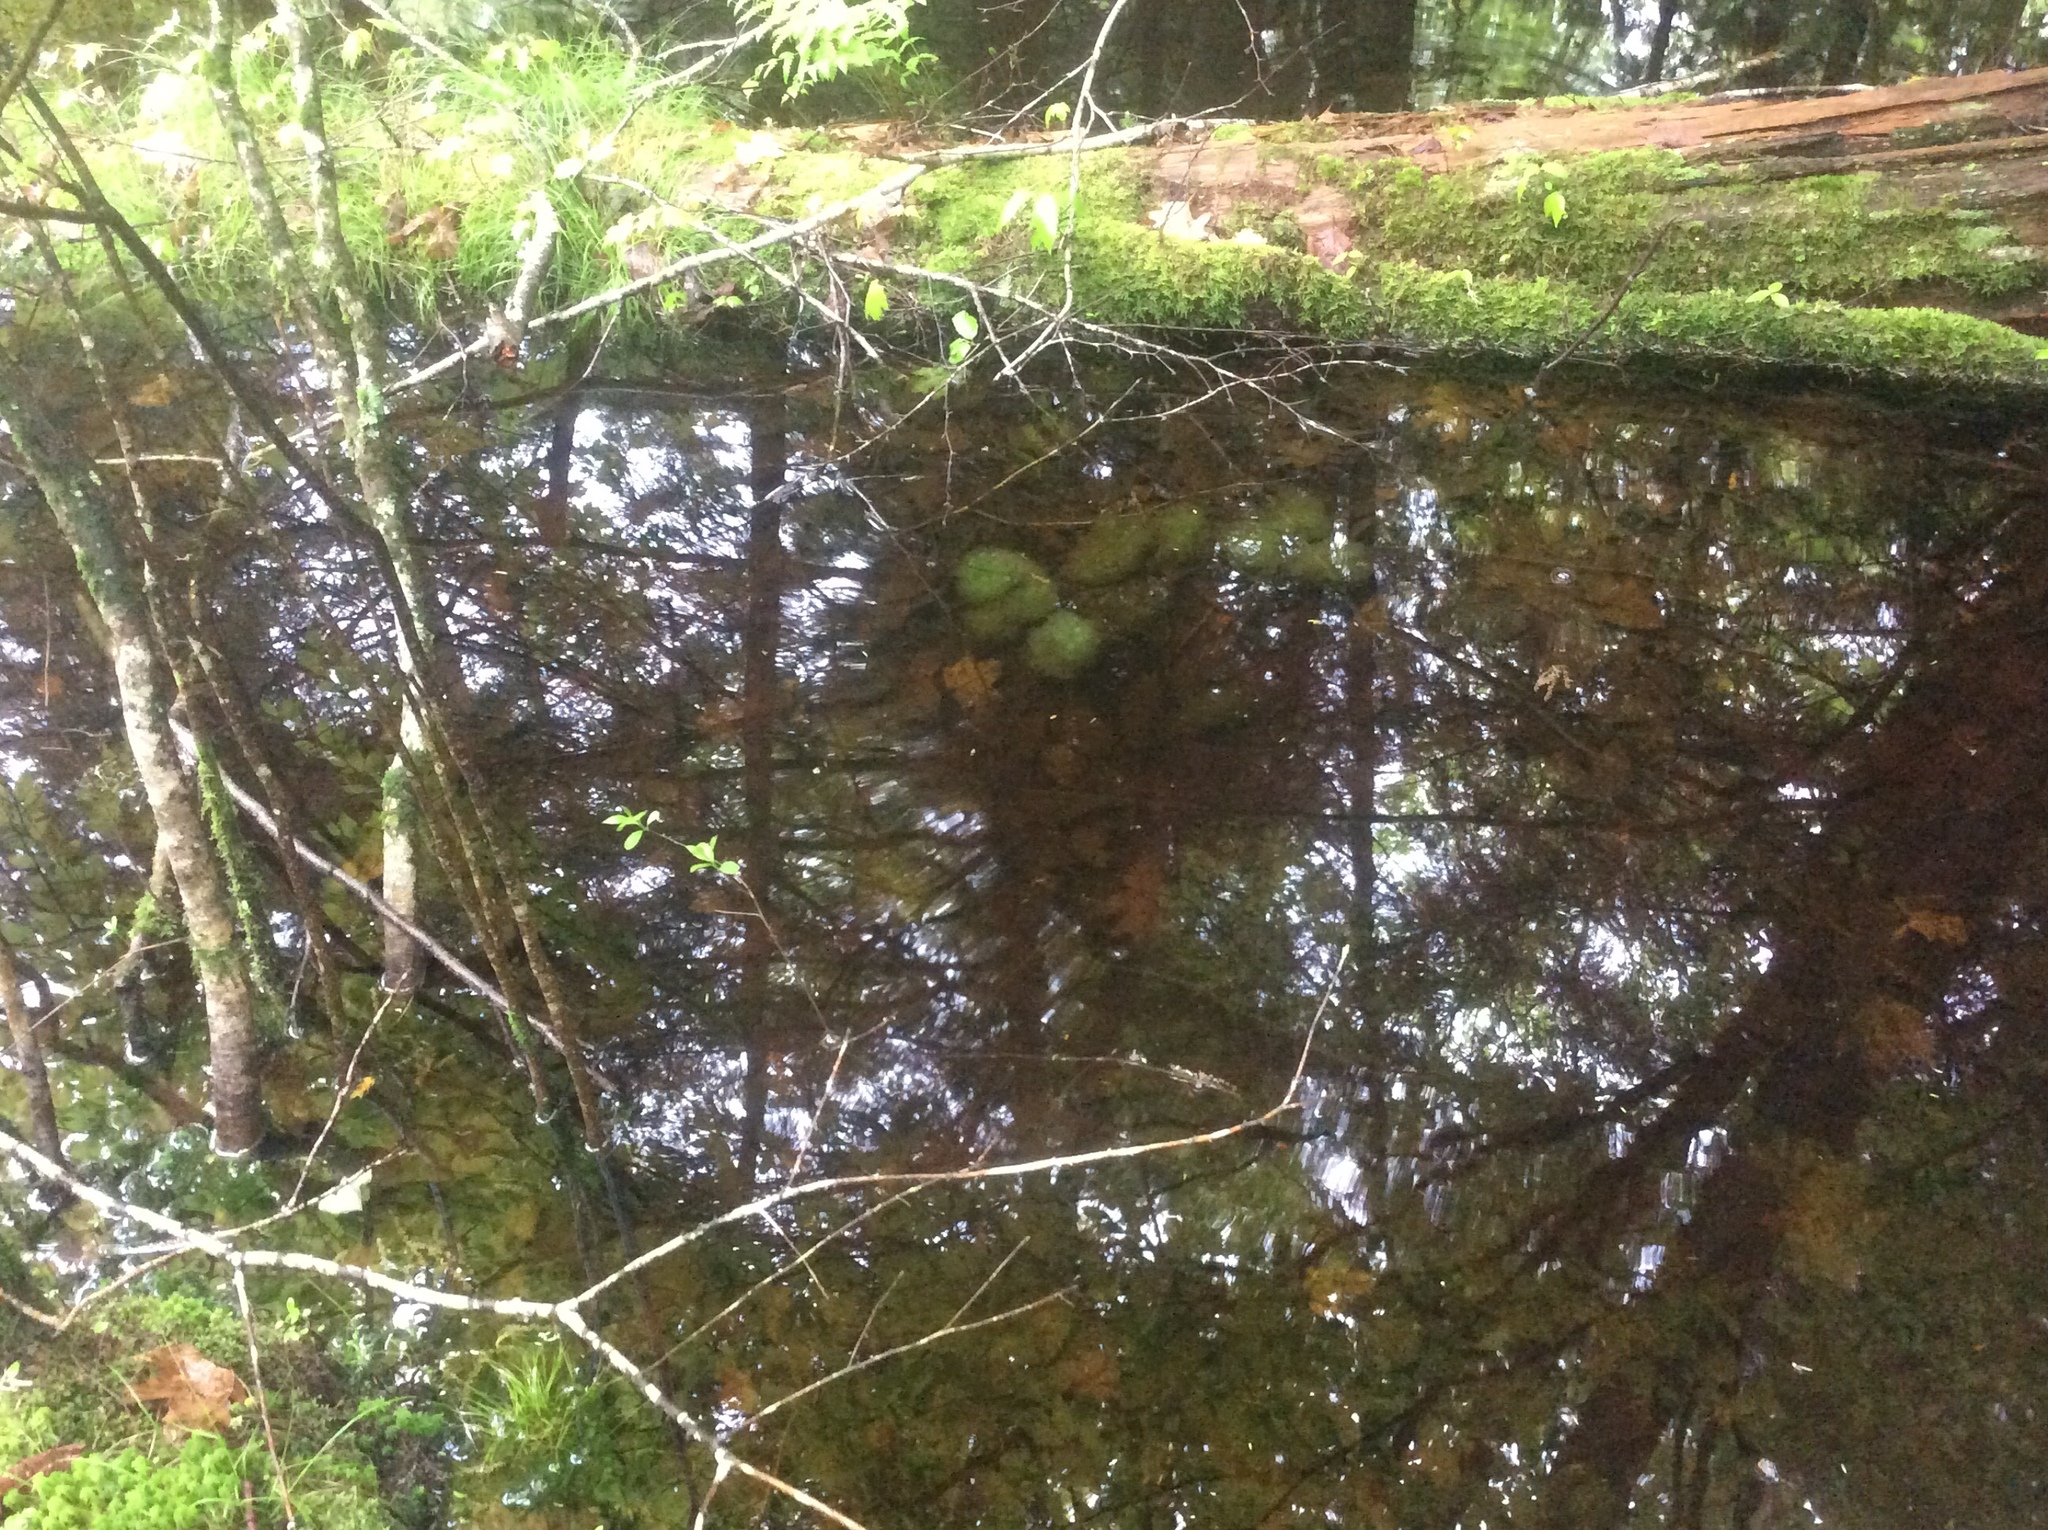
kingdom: Animalia
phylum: Chordata
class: Amphibia
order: Caudata
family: Ambystomatidae
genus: Ambystoma
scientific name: Ambystoma maculatum
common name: Spotted salamander
